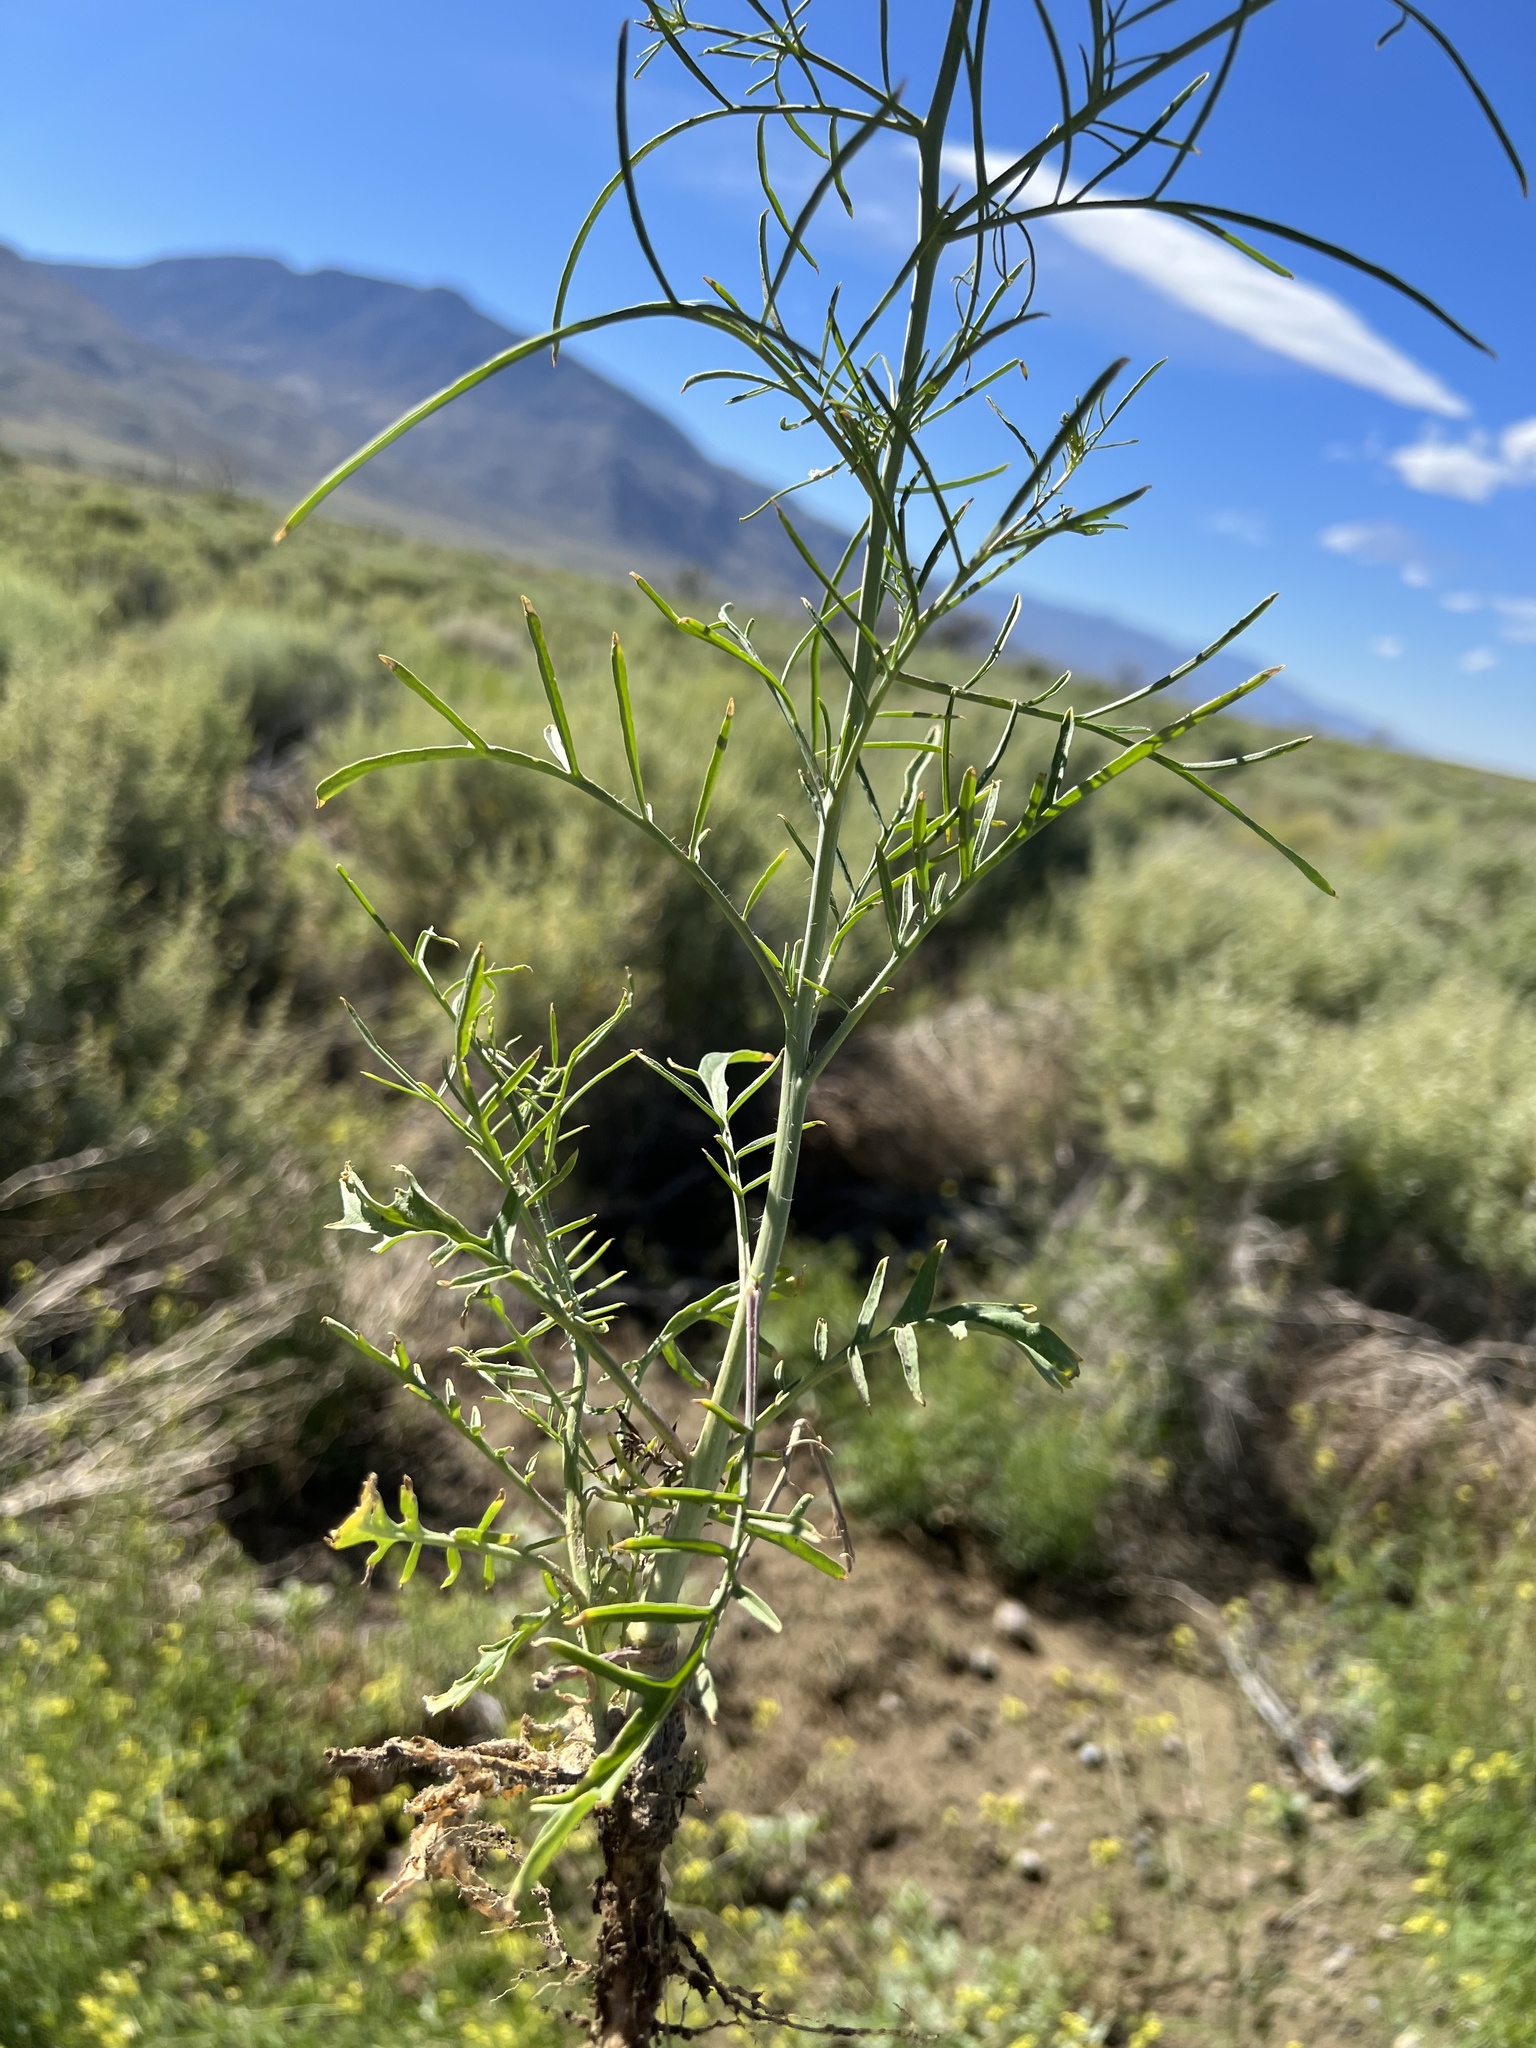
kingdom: Plantae
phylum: Tracheophyta
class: Magnoliopsida
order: Brassicales
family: Brassicaceae
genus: Sisymbrium
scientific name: Sisymbrium altissimum
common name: Tall rocket
